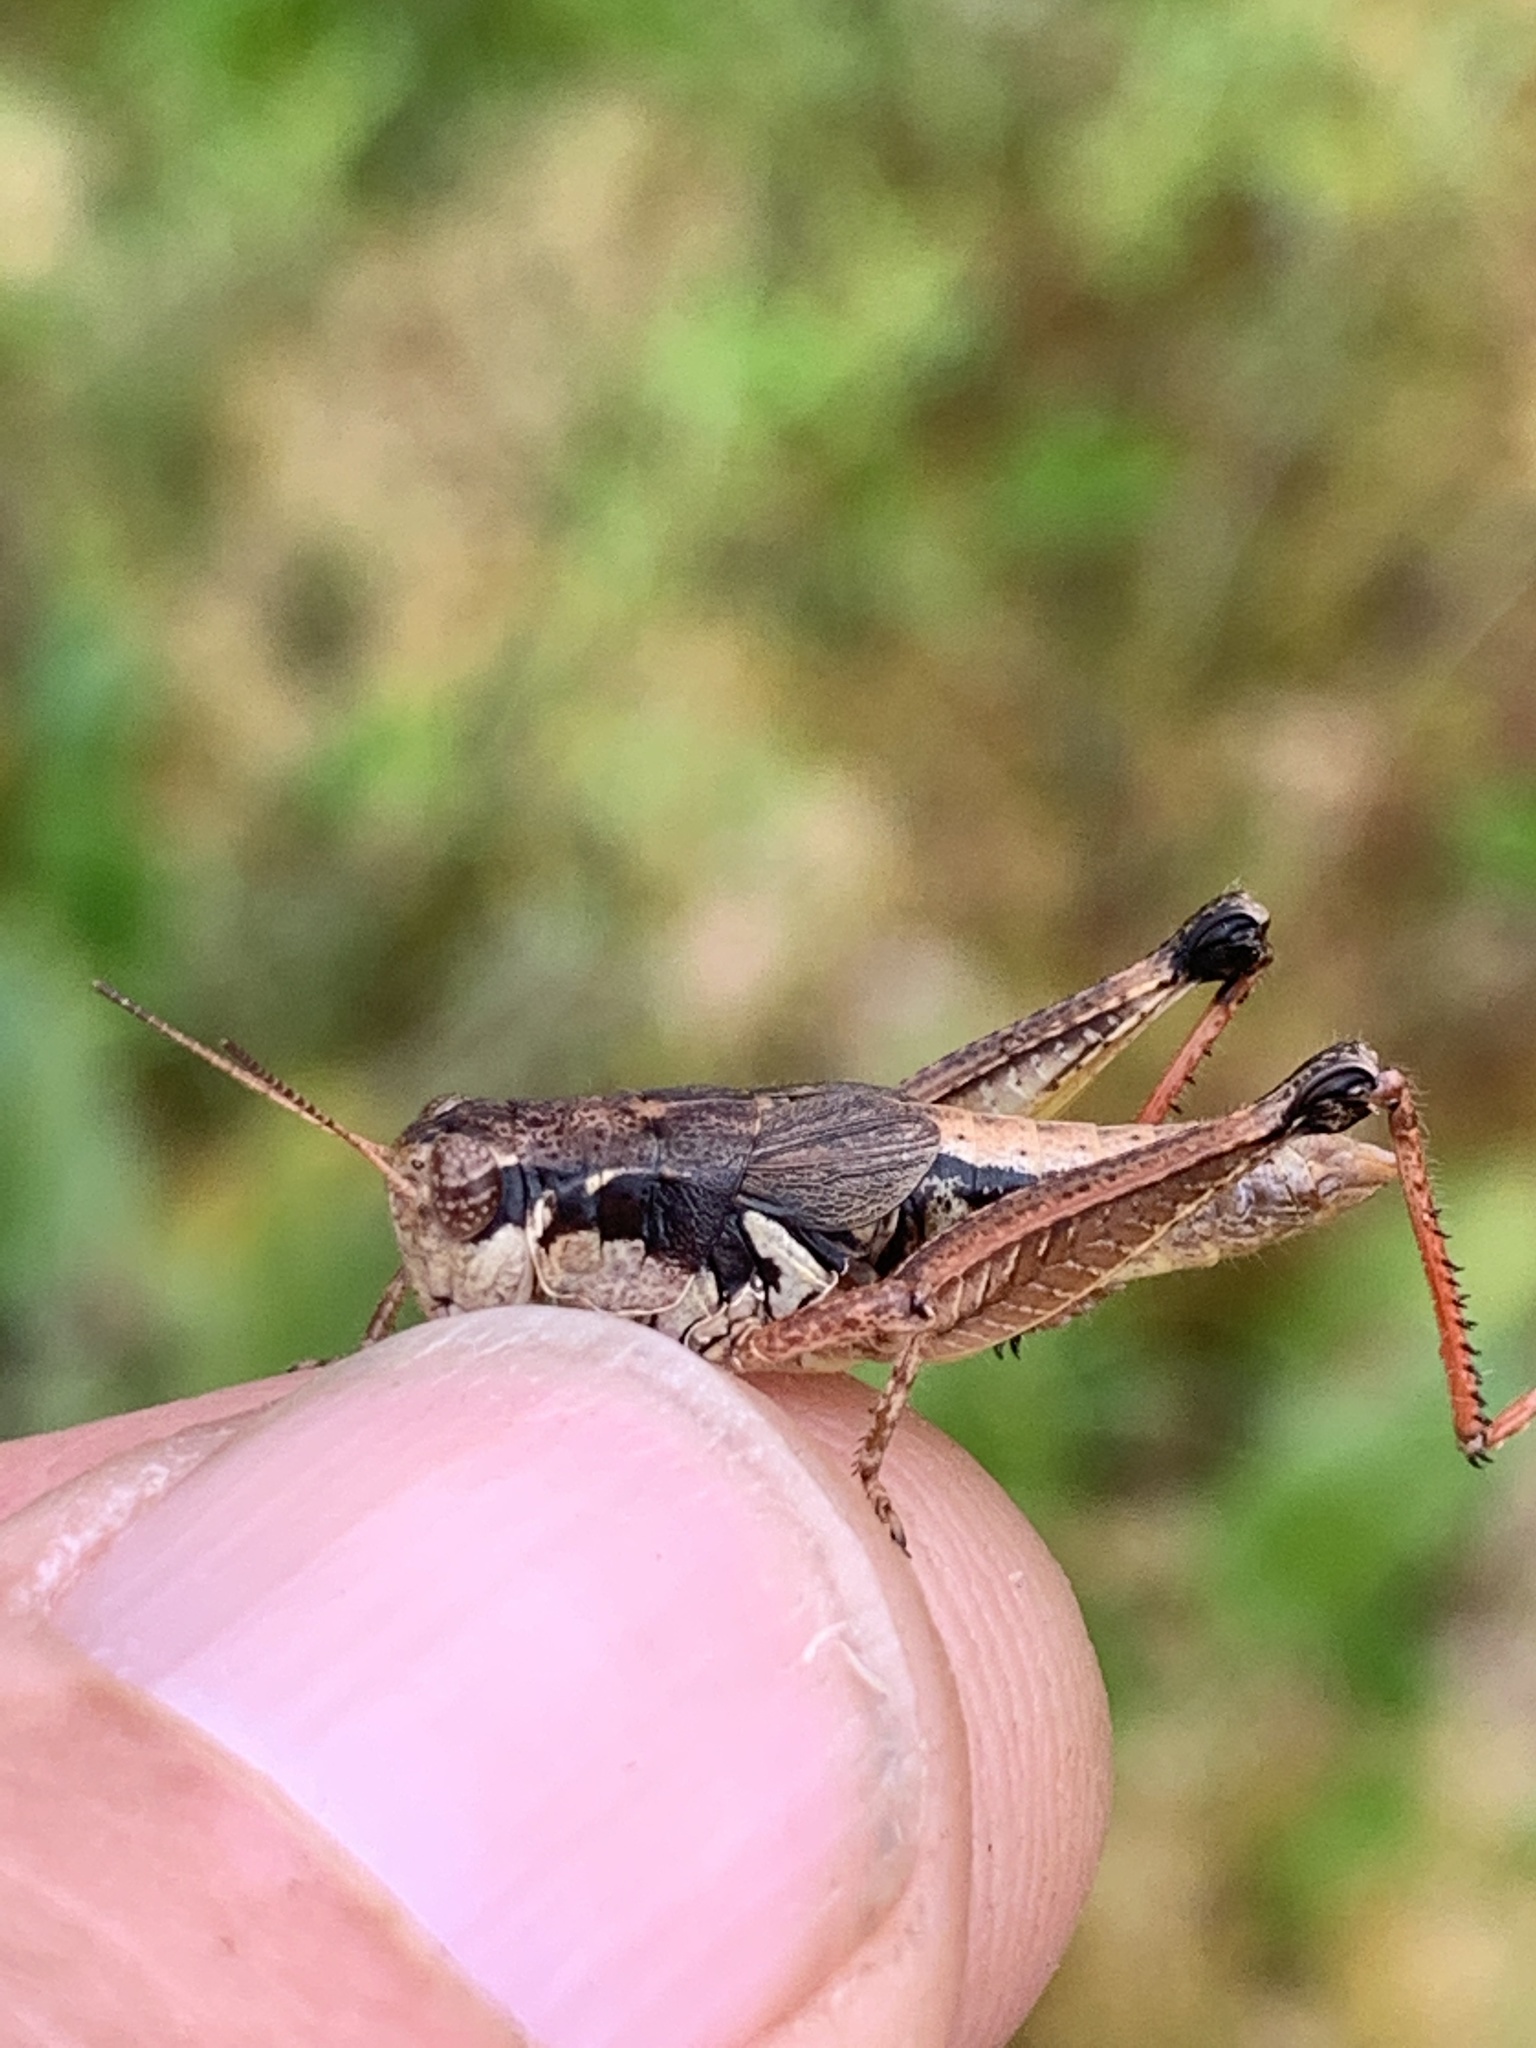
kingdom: Animalia
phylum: Arthropoda
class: Insecta
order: Orthoptera
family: Acrididae
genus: Melanoplus
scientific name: Melanoplus islandicus
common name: Island locust
